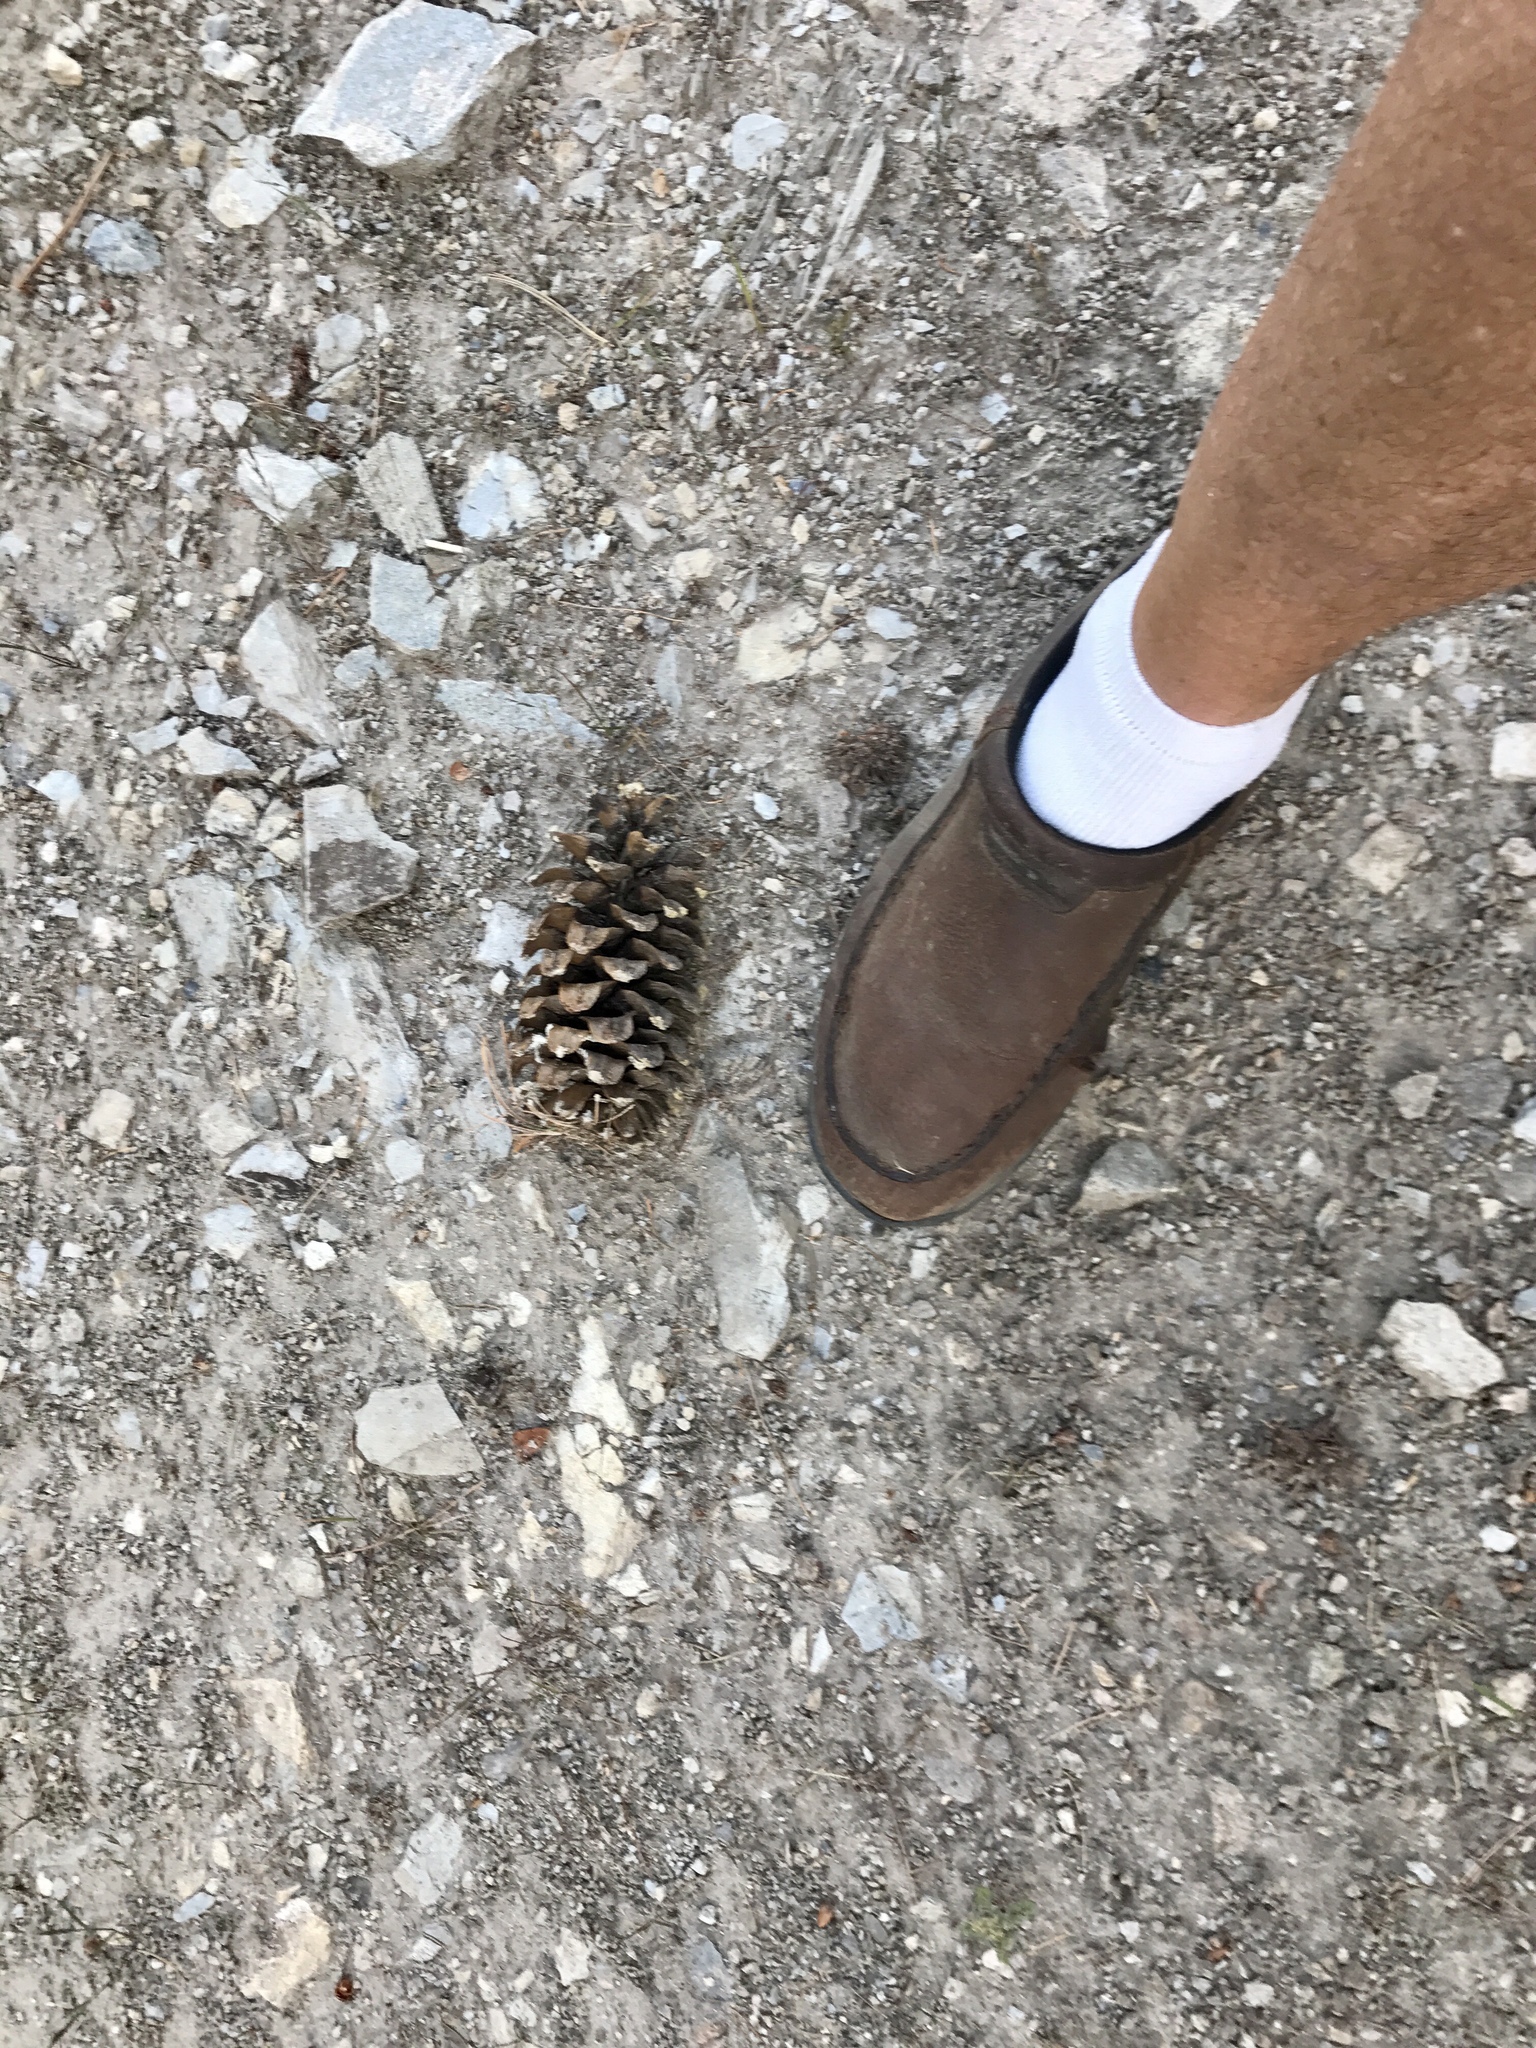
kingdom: Plantae
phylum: Tracheophyta
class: Pinopsida
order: Pinales
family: Pinaceae
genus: Pinus
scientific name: Pinus strobiformis
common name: Southwestern white pine
